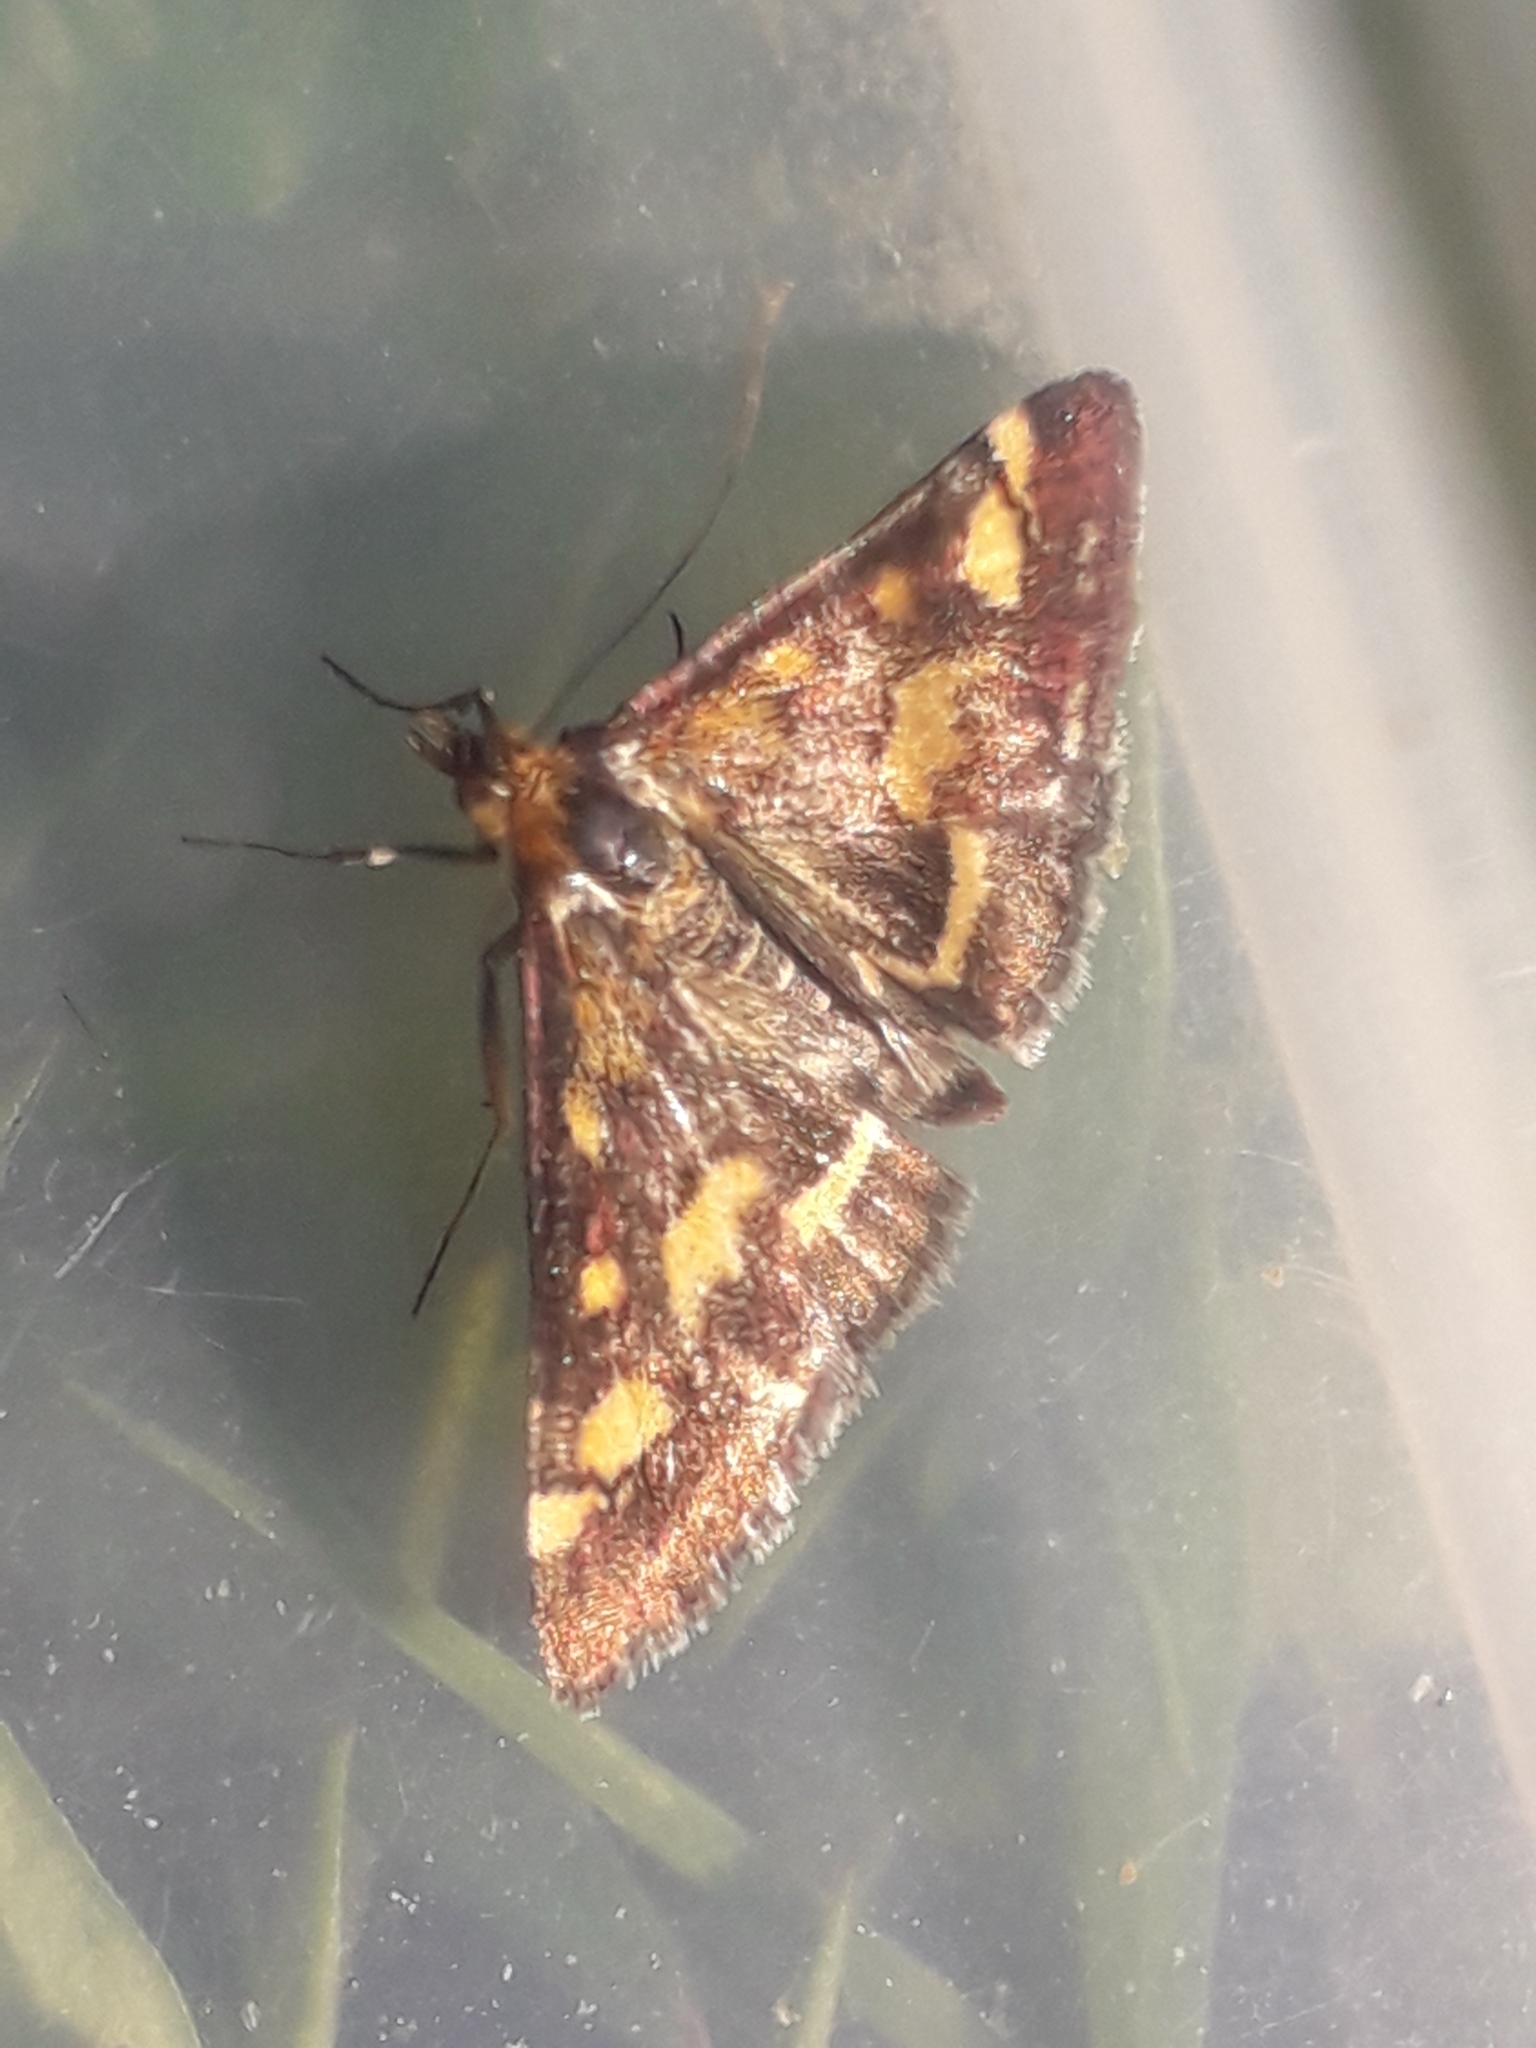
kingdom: Animalia
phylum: Arthropoda
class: Insecta
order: Lepidoptera
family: Crambidae
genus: Pyrausta
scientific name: Pyrausta purpuralis
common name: Common purple & gold
